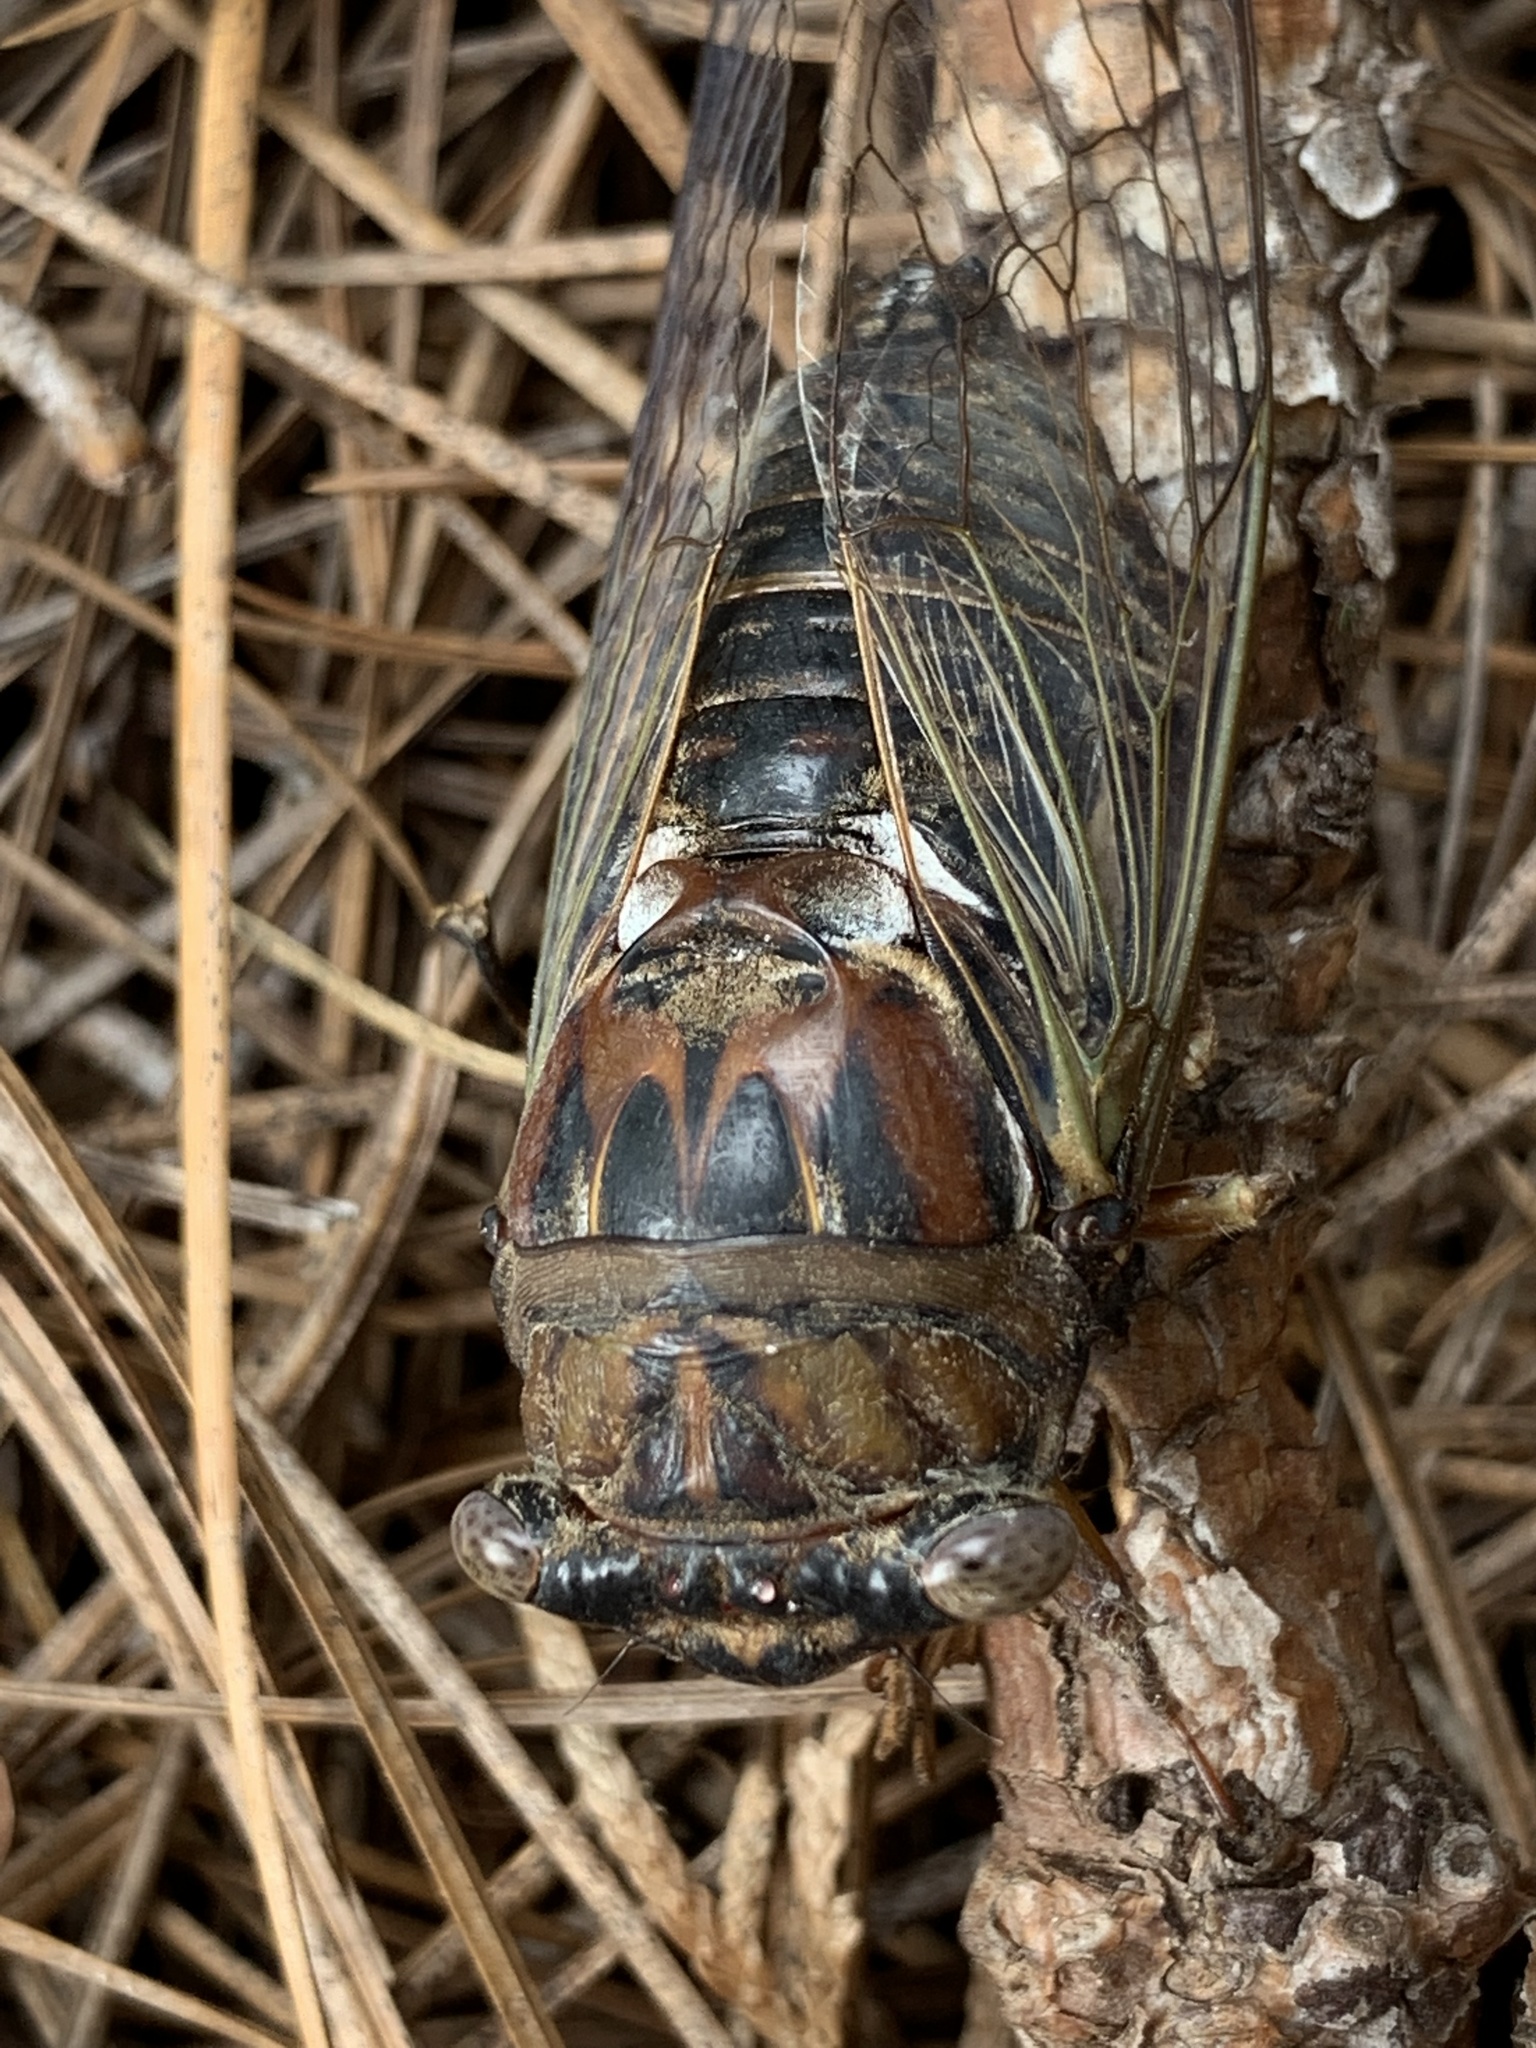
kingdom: Animalia
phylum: Arthropoda
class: Insecta
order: Hemiptera
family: Cicadidae
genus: Megatibicen
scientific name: Megatibicen resonans
